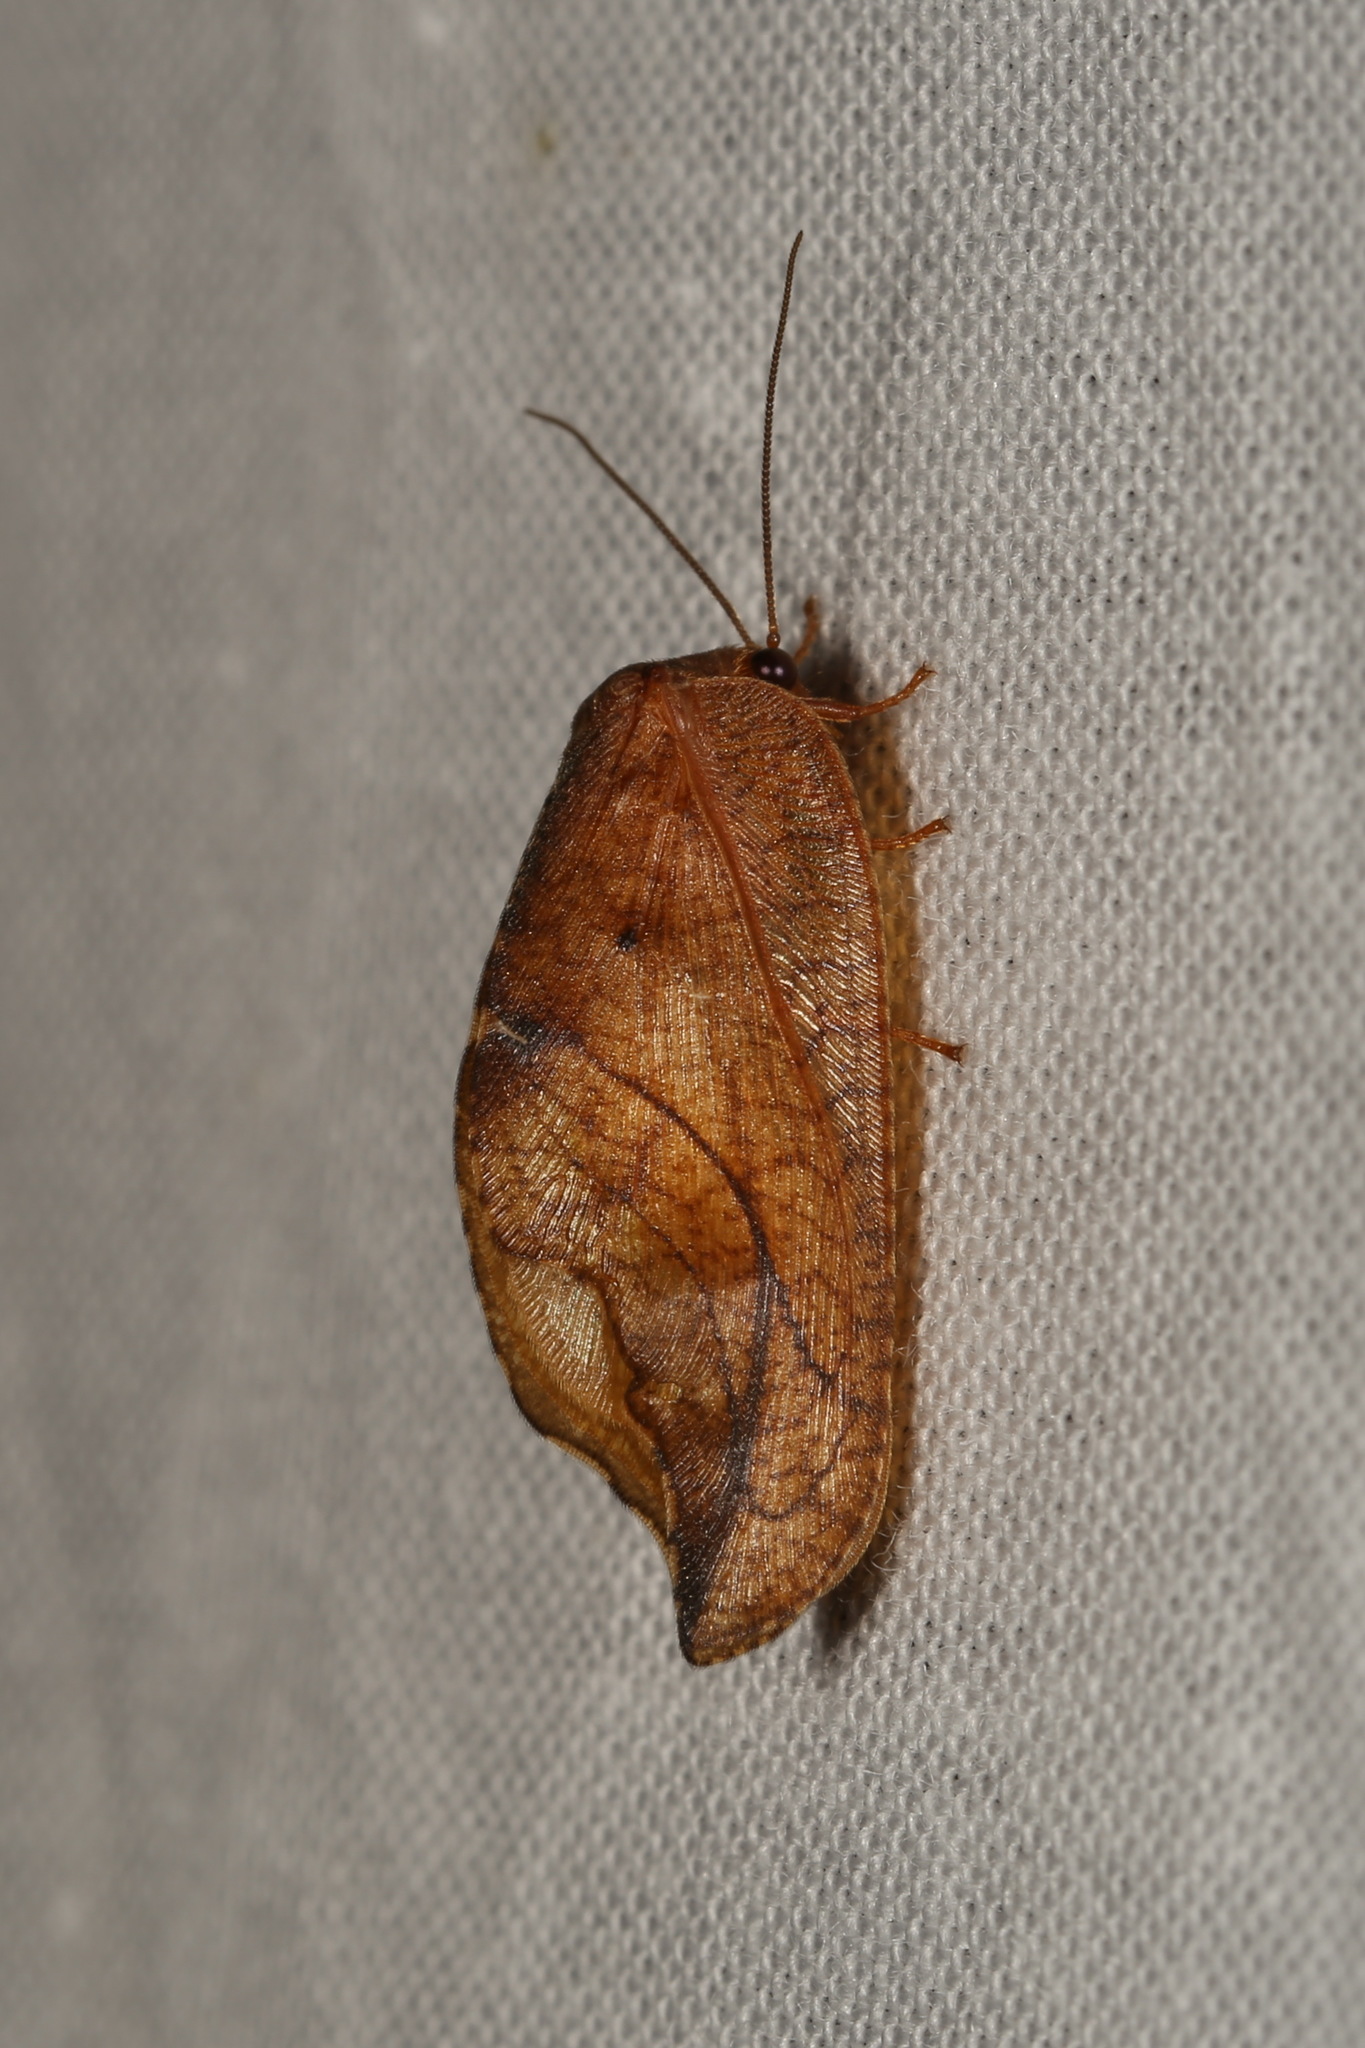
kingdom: Animalia
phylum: Arthropoda
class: Insecta
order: Neuroptera
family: Hemerobiidae
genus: Drepanepteryx
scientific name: Drepanepteryx phalaenoides
